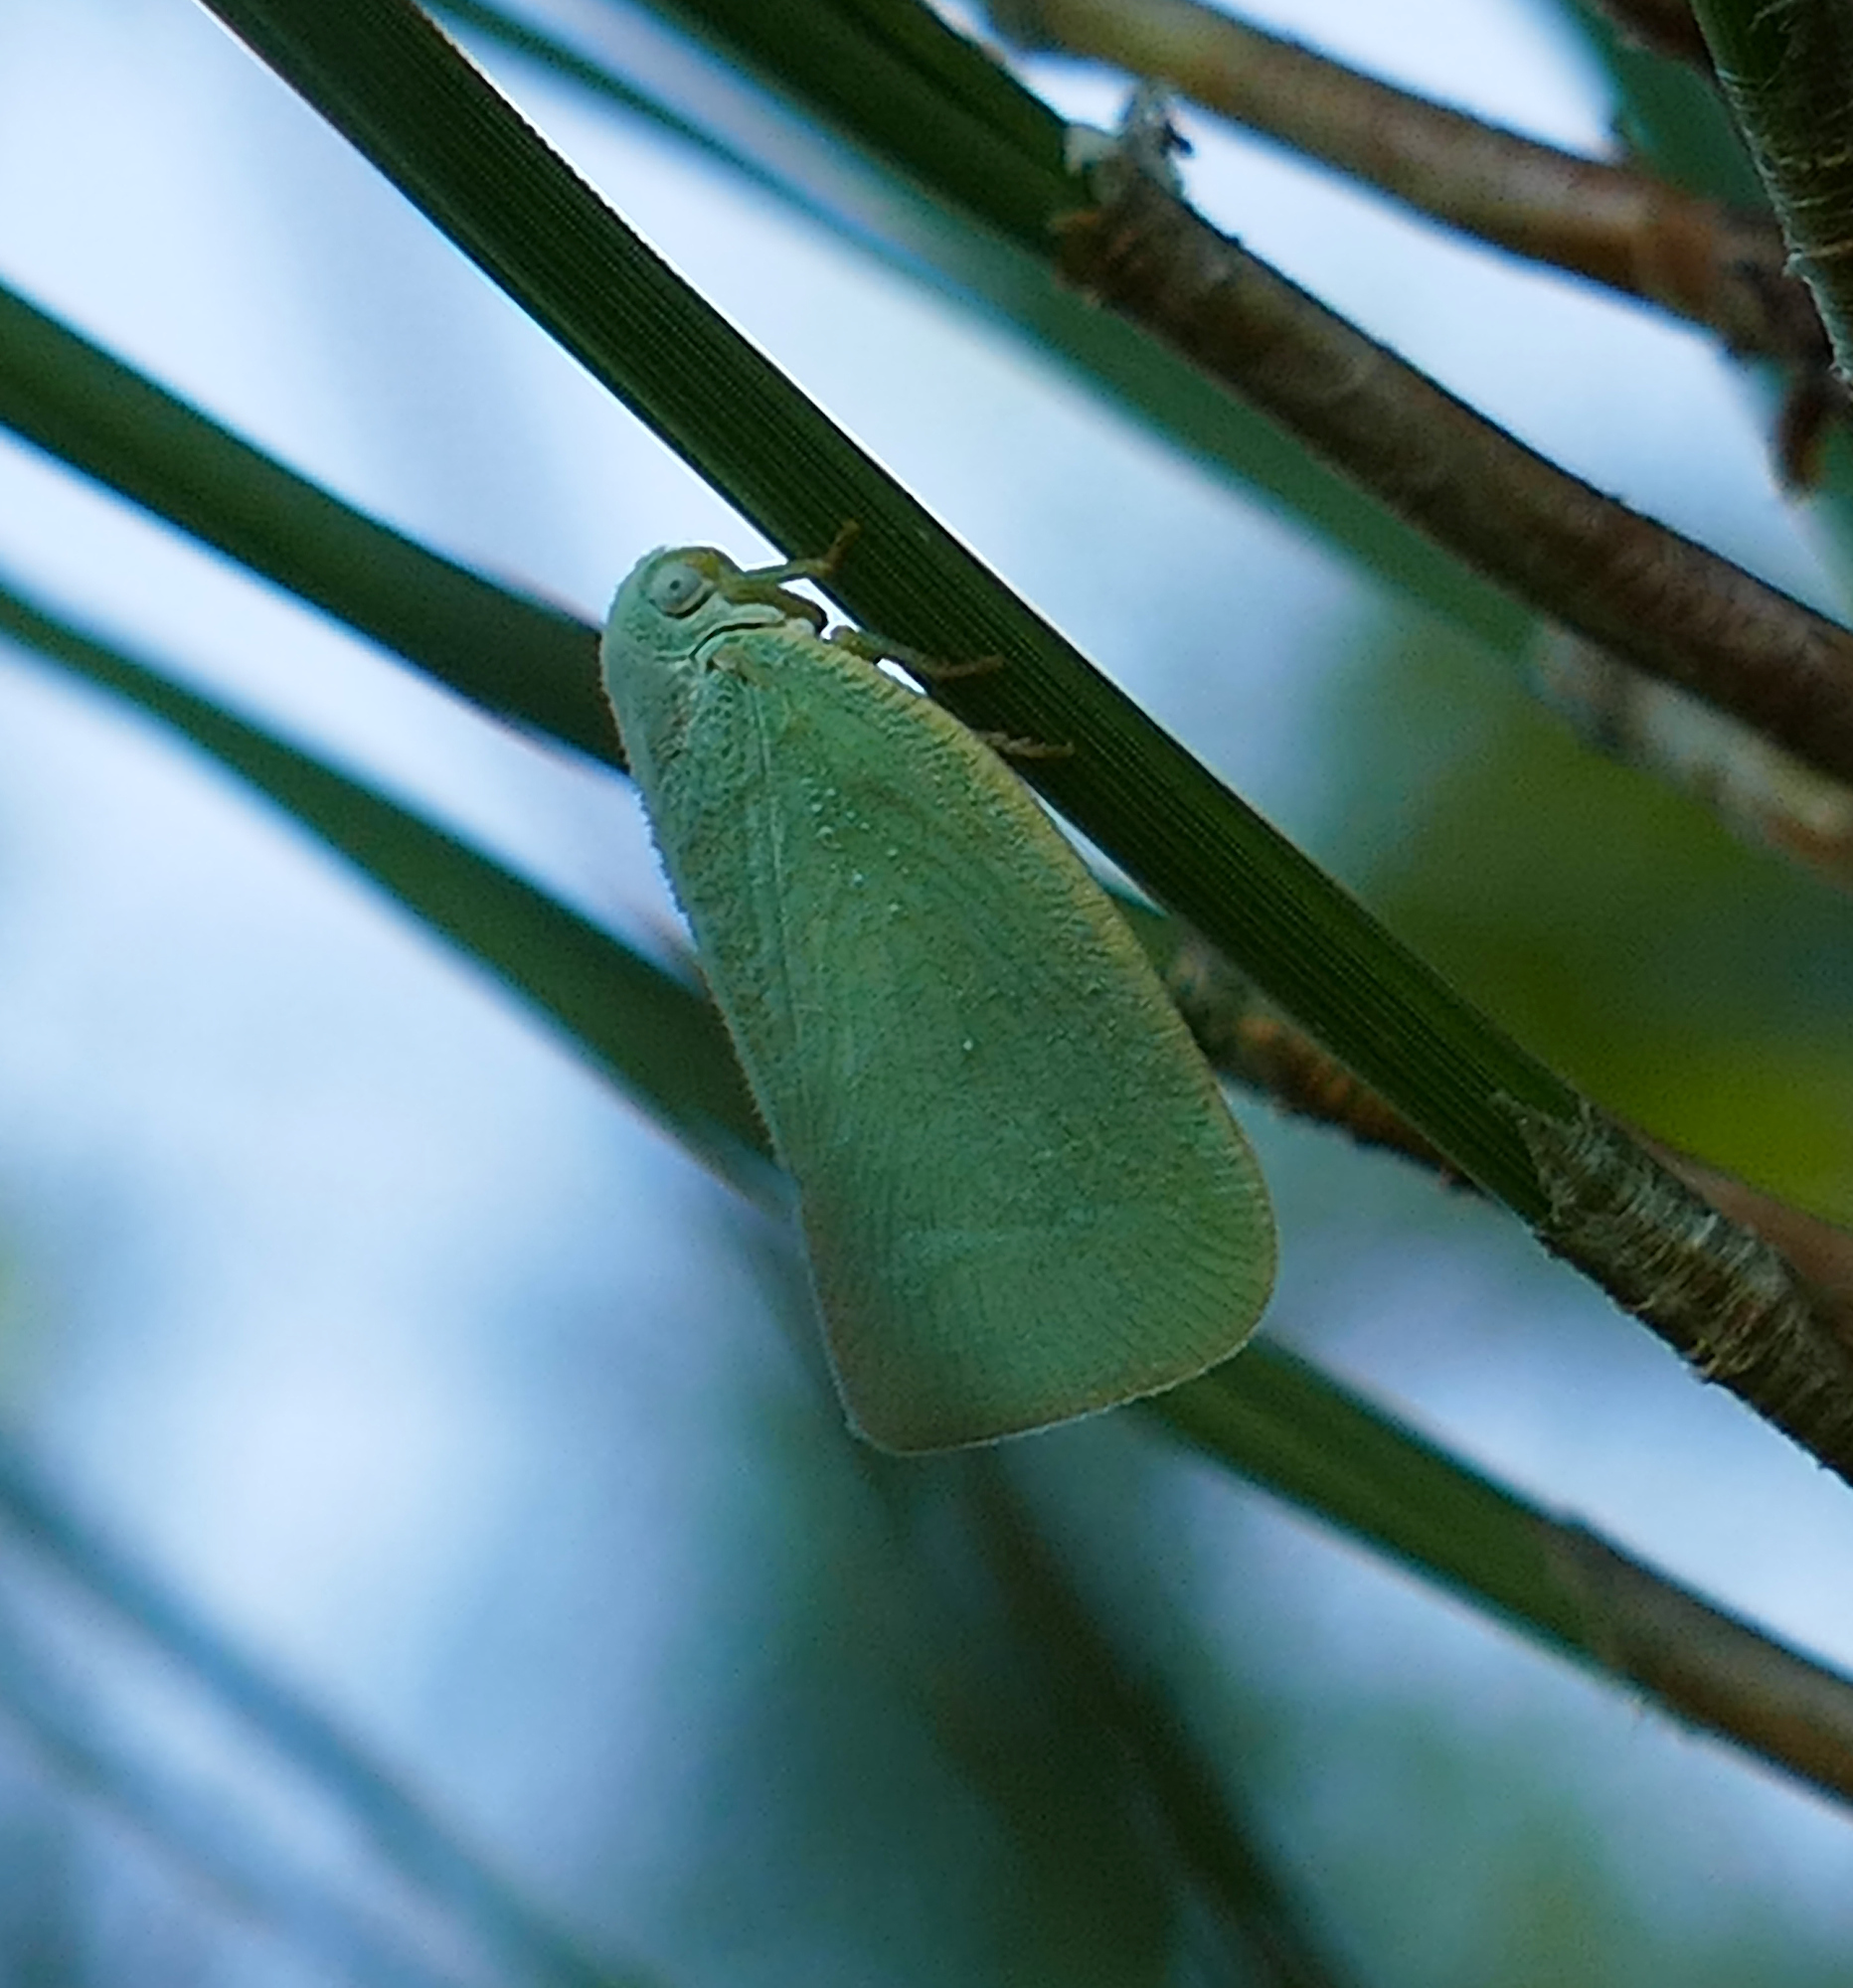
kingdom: Animalia
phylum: Arthropoda
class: Insecta
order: Hemiptera
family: Flatidae
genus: Flatormenis
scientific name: Flatormenis proxima
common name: Northern flatid planthopper
